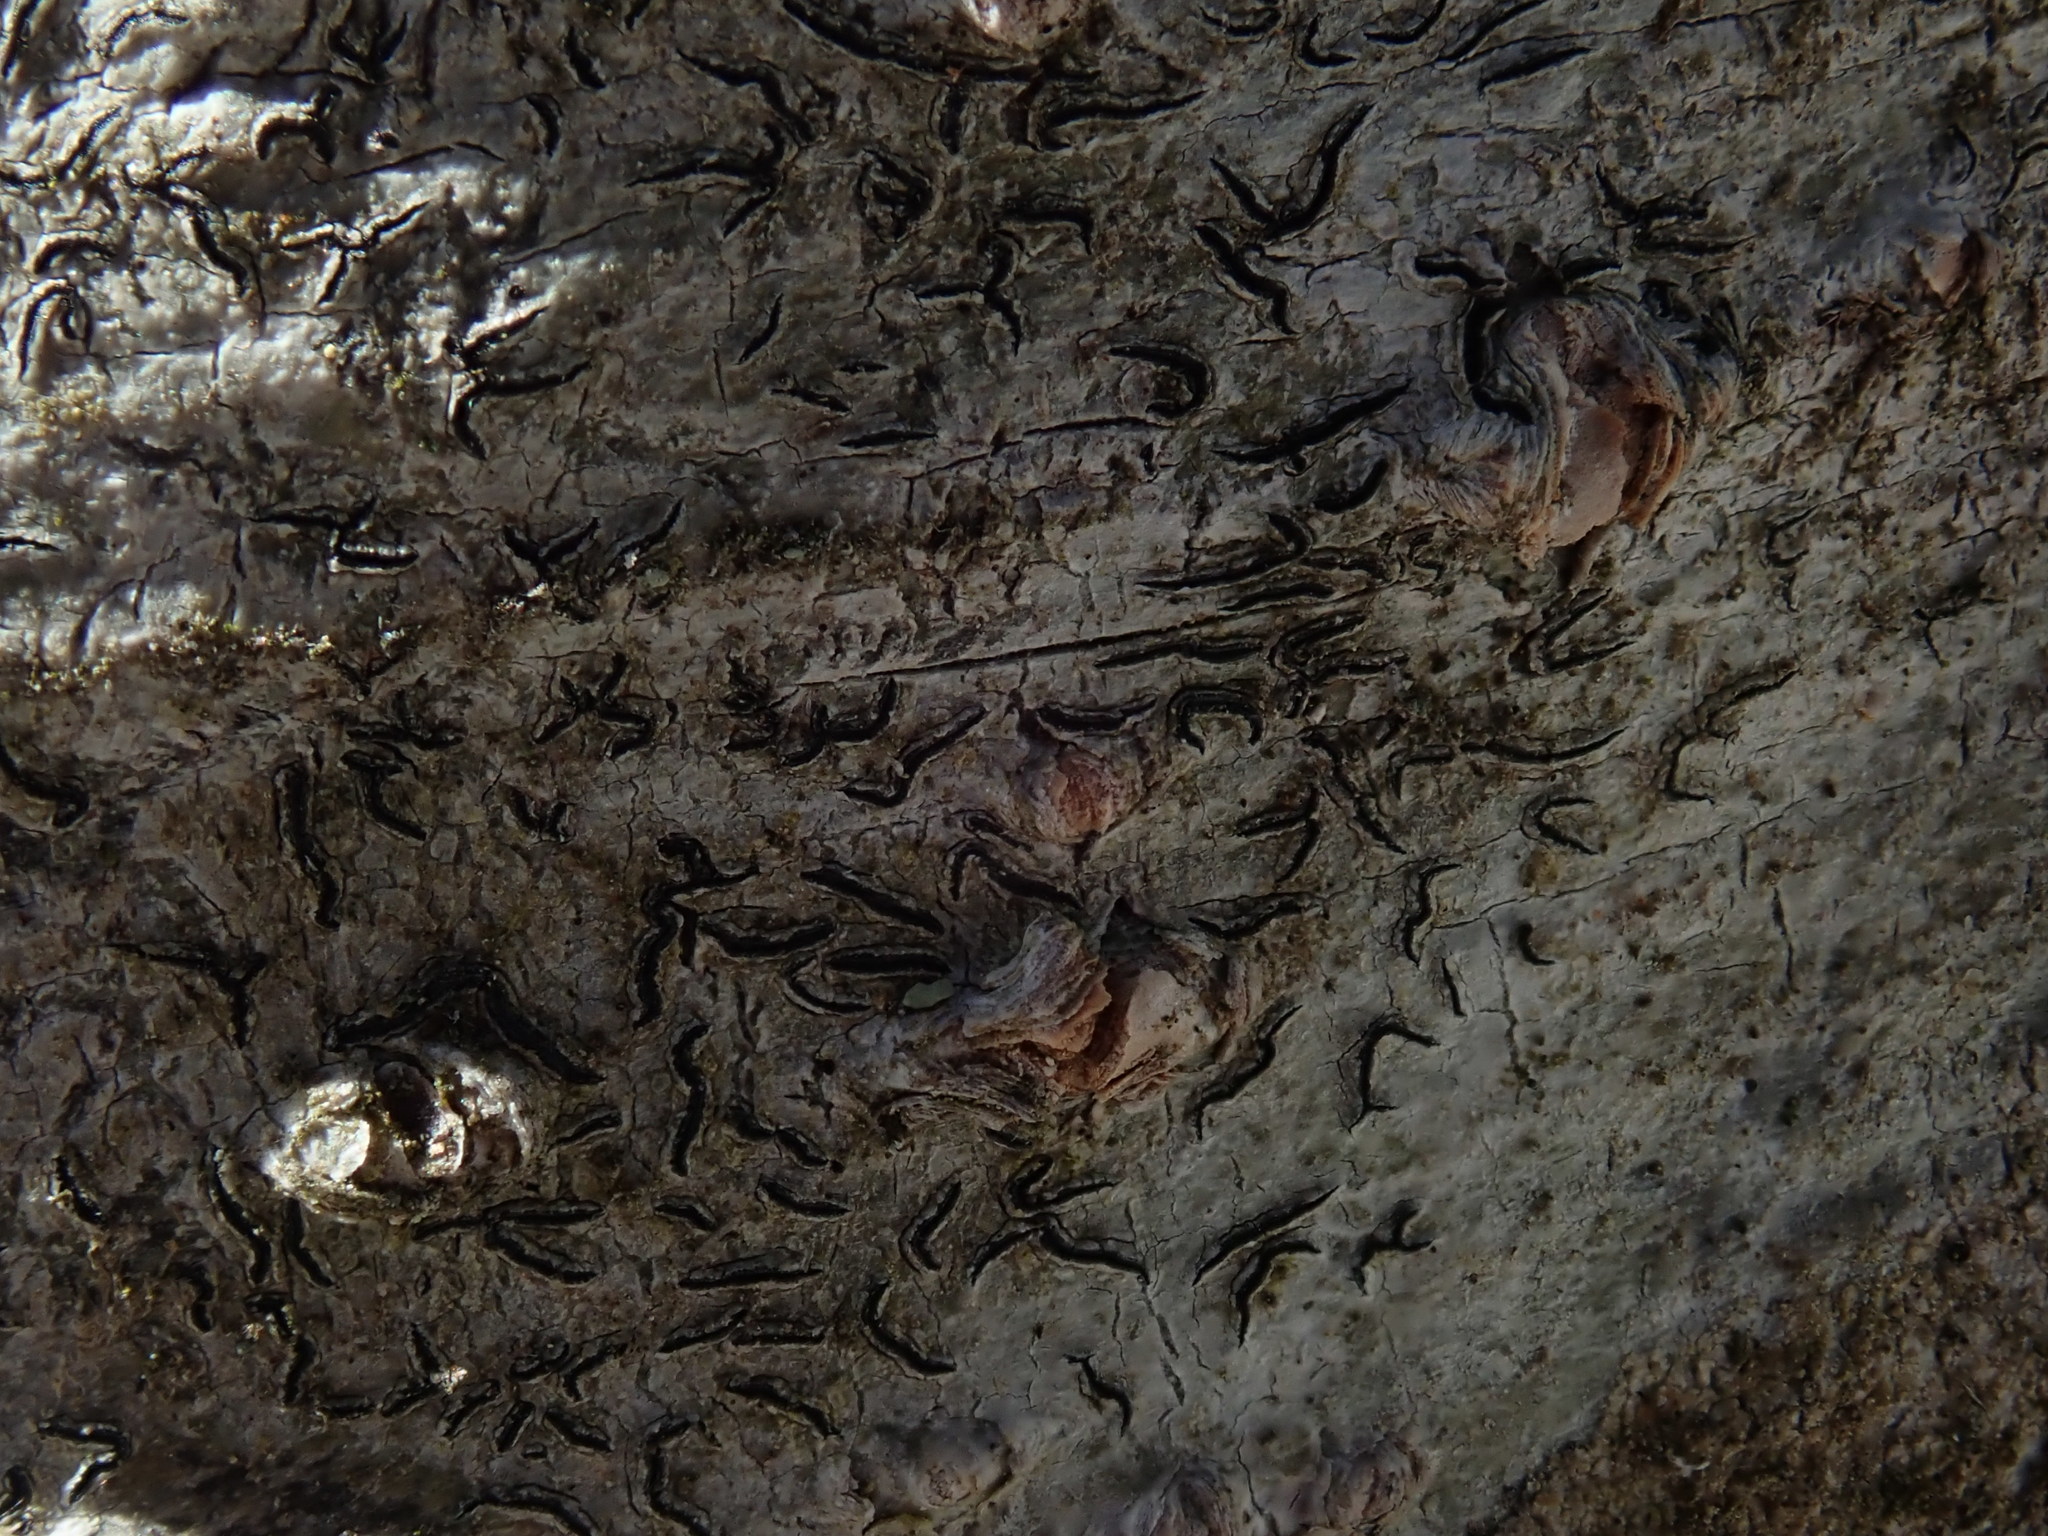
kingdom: Fungi
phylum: Ascomycota
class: Lecanoromycetes
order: Ostropales
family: Graphidaceae
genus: Graphis
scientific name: Graphis scripta
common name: Script lichen
